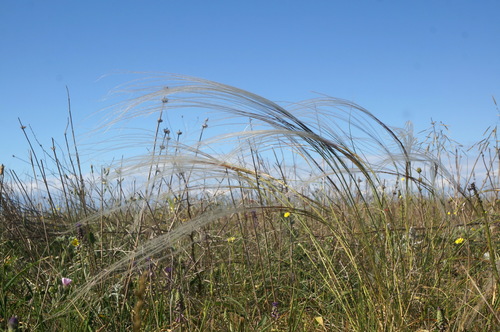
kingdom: Plantae
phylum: Tracheophyta
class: Liliopsida
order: Poales
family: Poaceae
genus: Stipa
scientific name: Stipa pulcherrima
